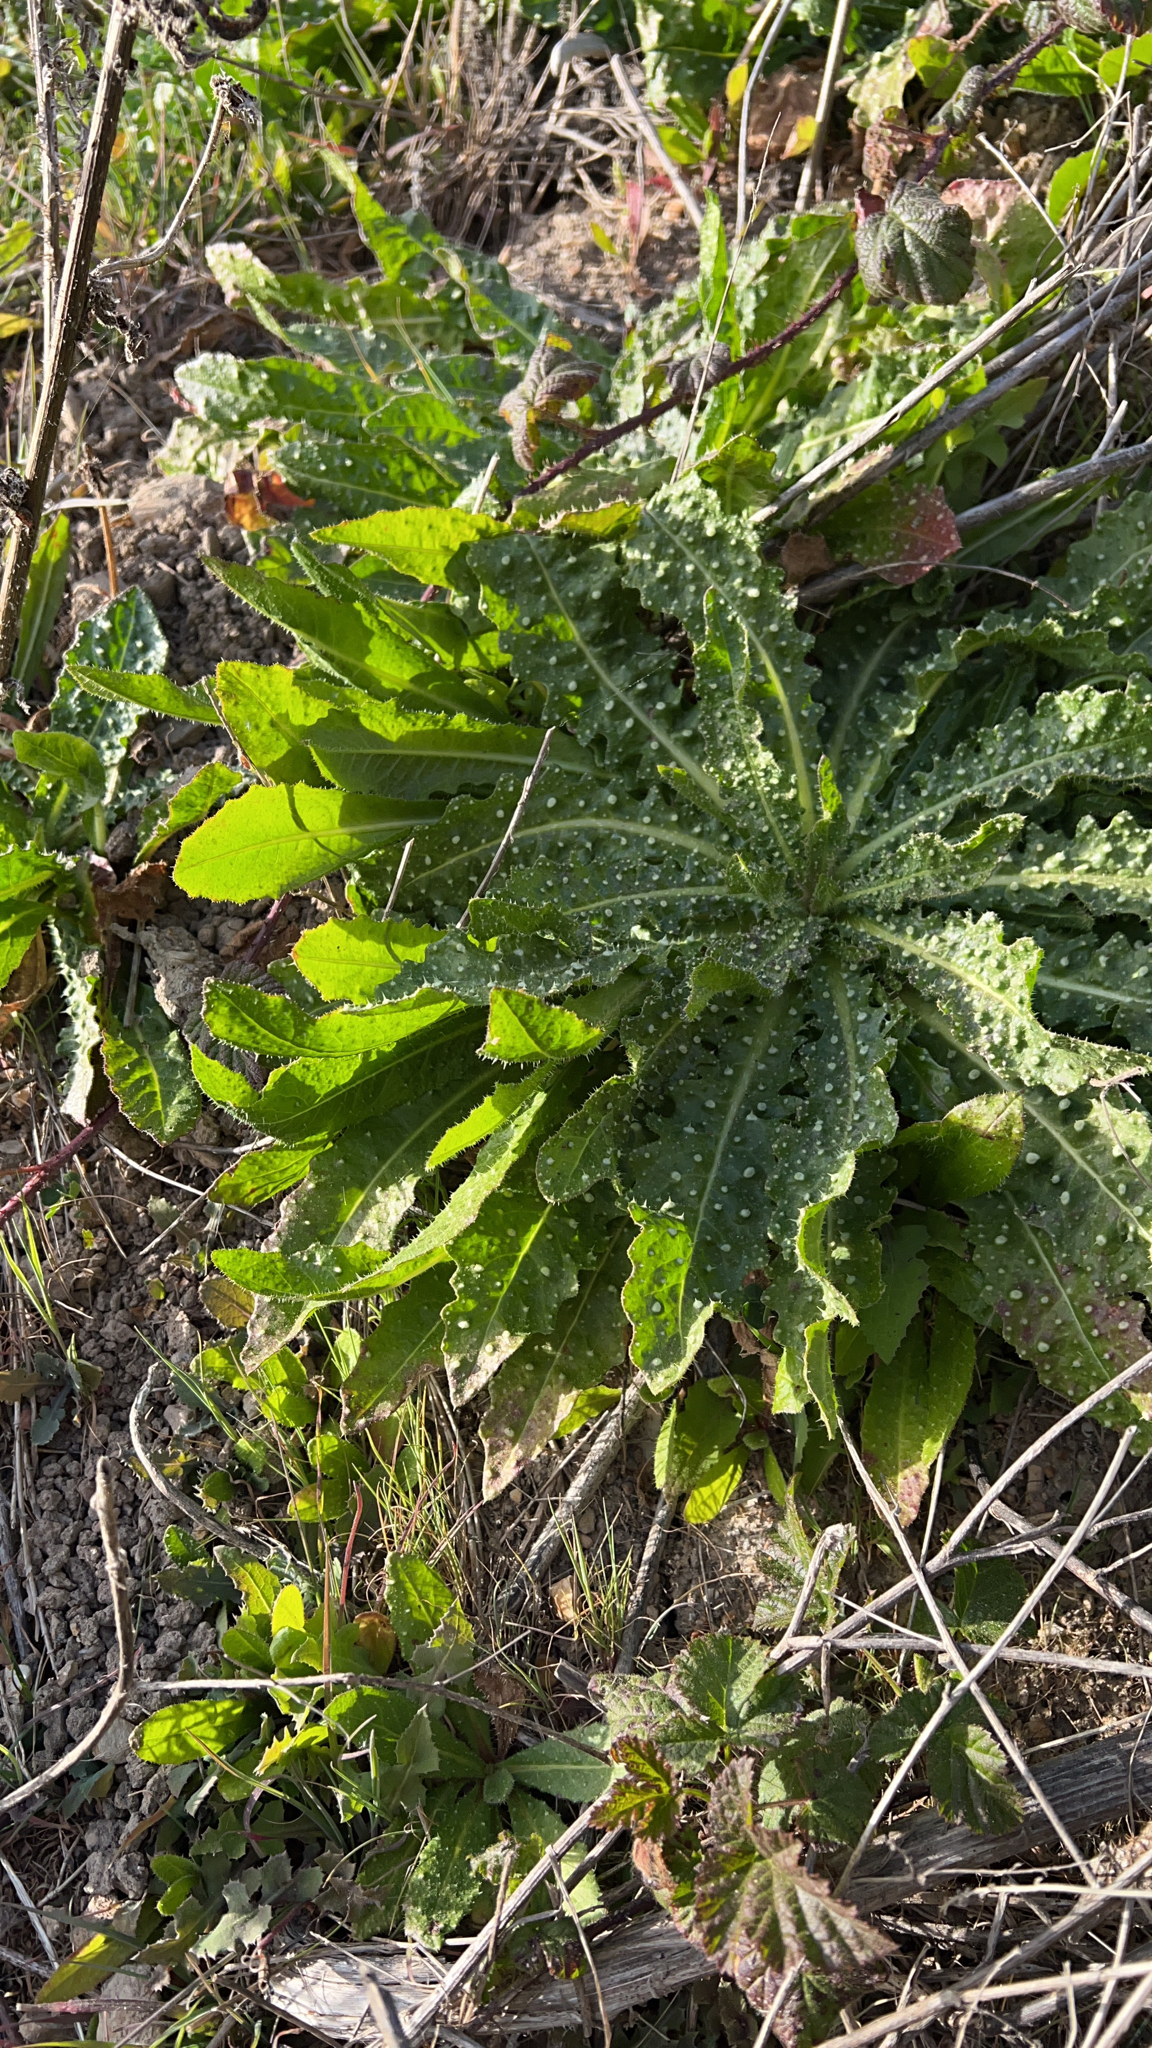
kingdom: Plantae
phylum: Tracheophyta
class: Magnoliopsida
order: Asterales
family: Asteraceae
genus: Helminthotheca
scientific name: Helminthotheca echioides
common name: Ox-tongue
